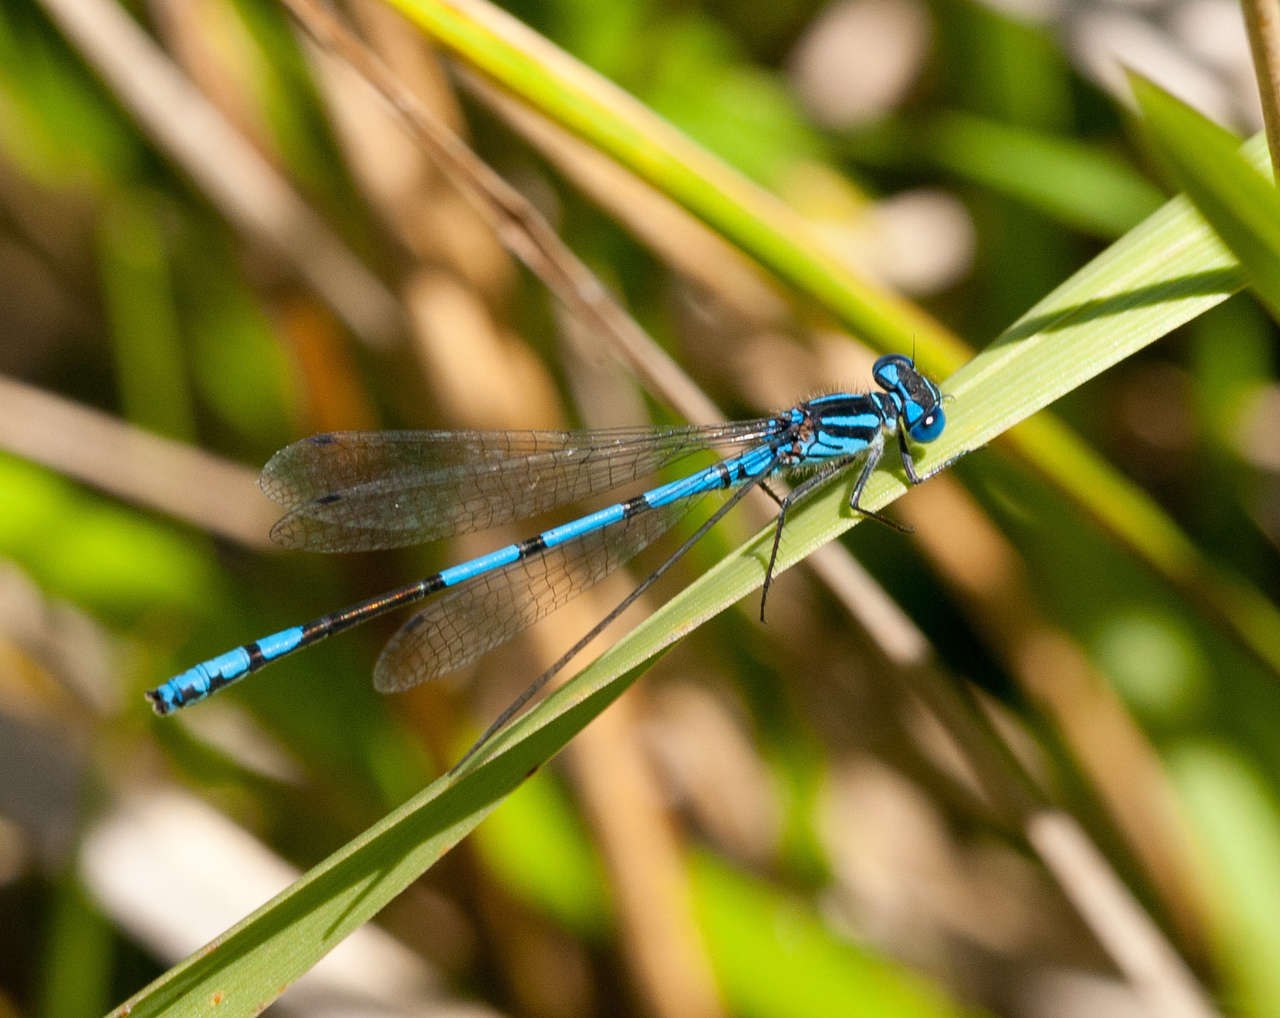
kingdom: Animalia
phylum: Arthropoda
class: Insecta
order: Odonata
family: Coenagrionidae
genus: Austrocoenagrion
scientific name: Austrocoenagrion lyelli
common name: Swamp bluet
